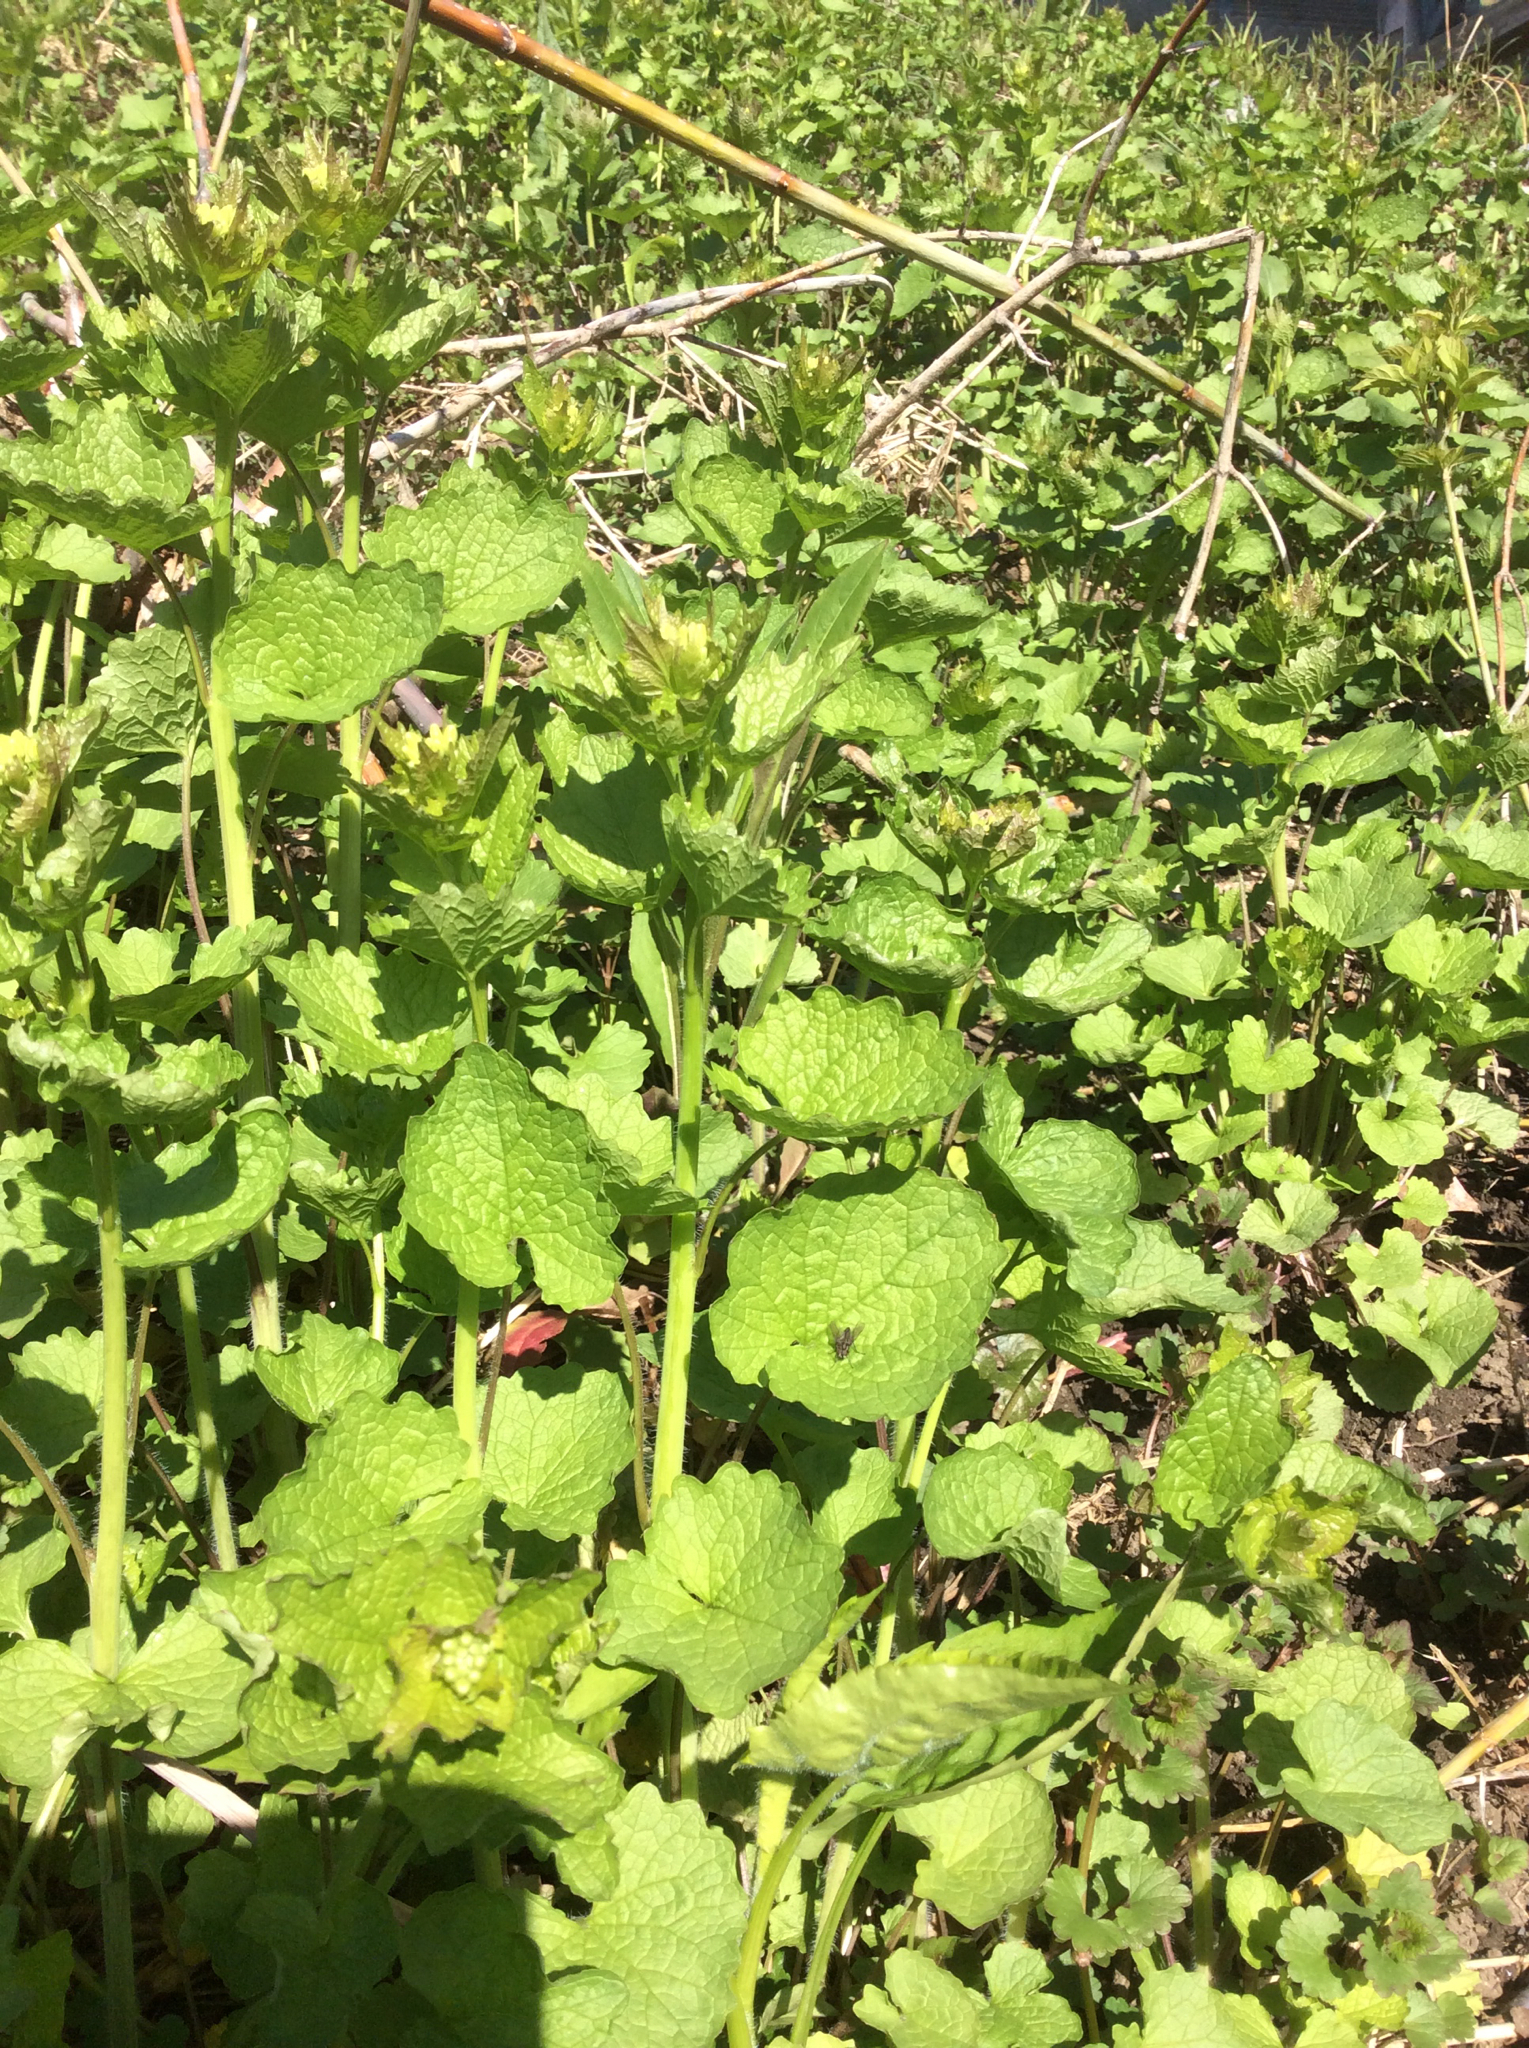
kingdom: Plantae
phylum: Tracheophyta
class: Magnoliopsida
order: Brassicales
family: Brassicaceae
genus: Alliaria
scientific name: Alliaria petiolata
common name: Garlic mustard
